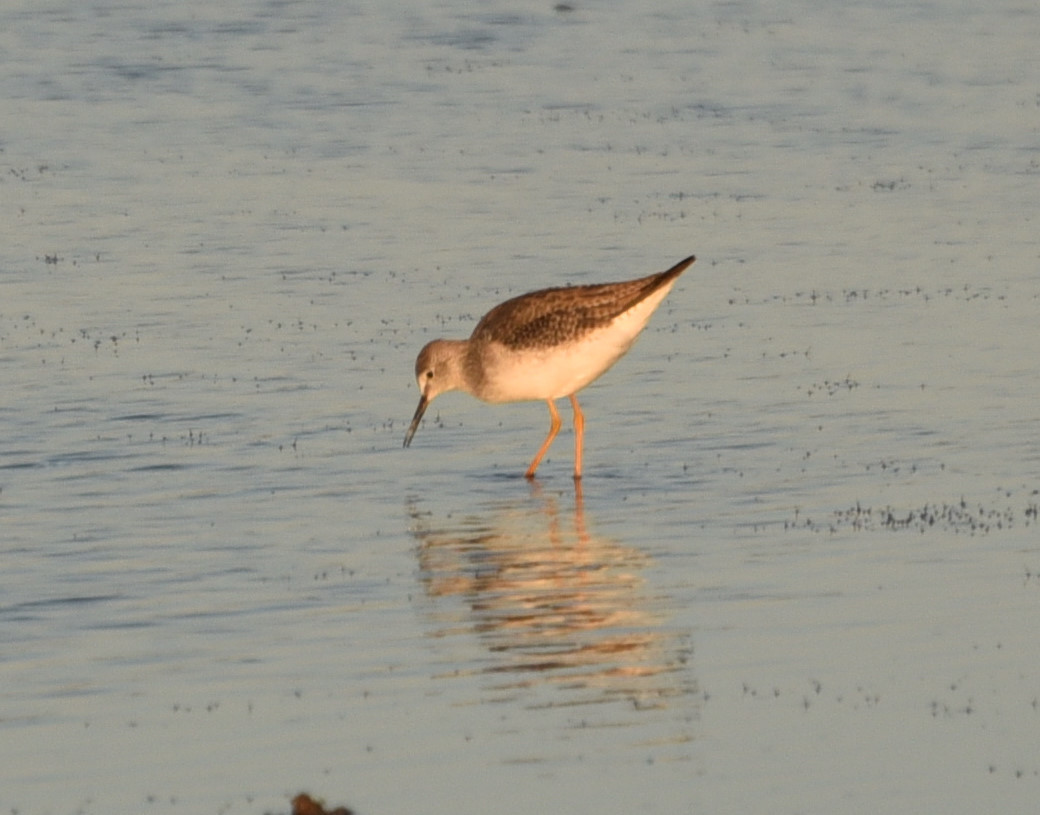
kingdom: Animalia
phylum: Chordata
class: Aves
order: Charadriiformes
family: Scolopacidae
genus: Tringa
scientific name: Tringa flavipes
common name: Lesser yellowlegs
